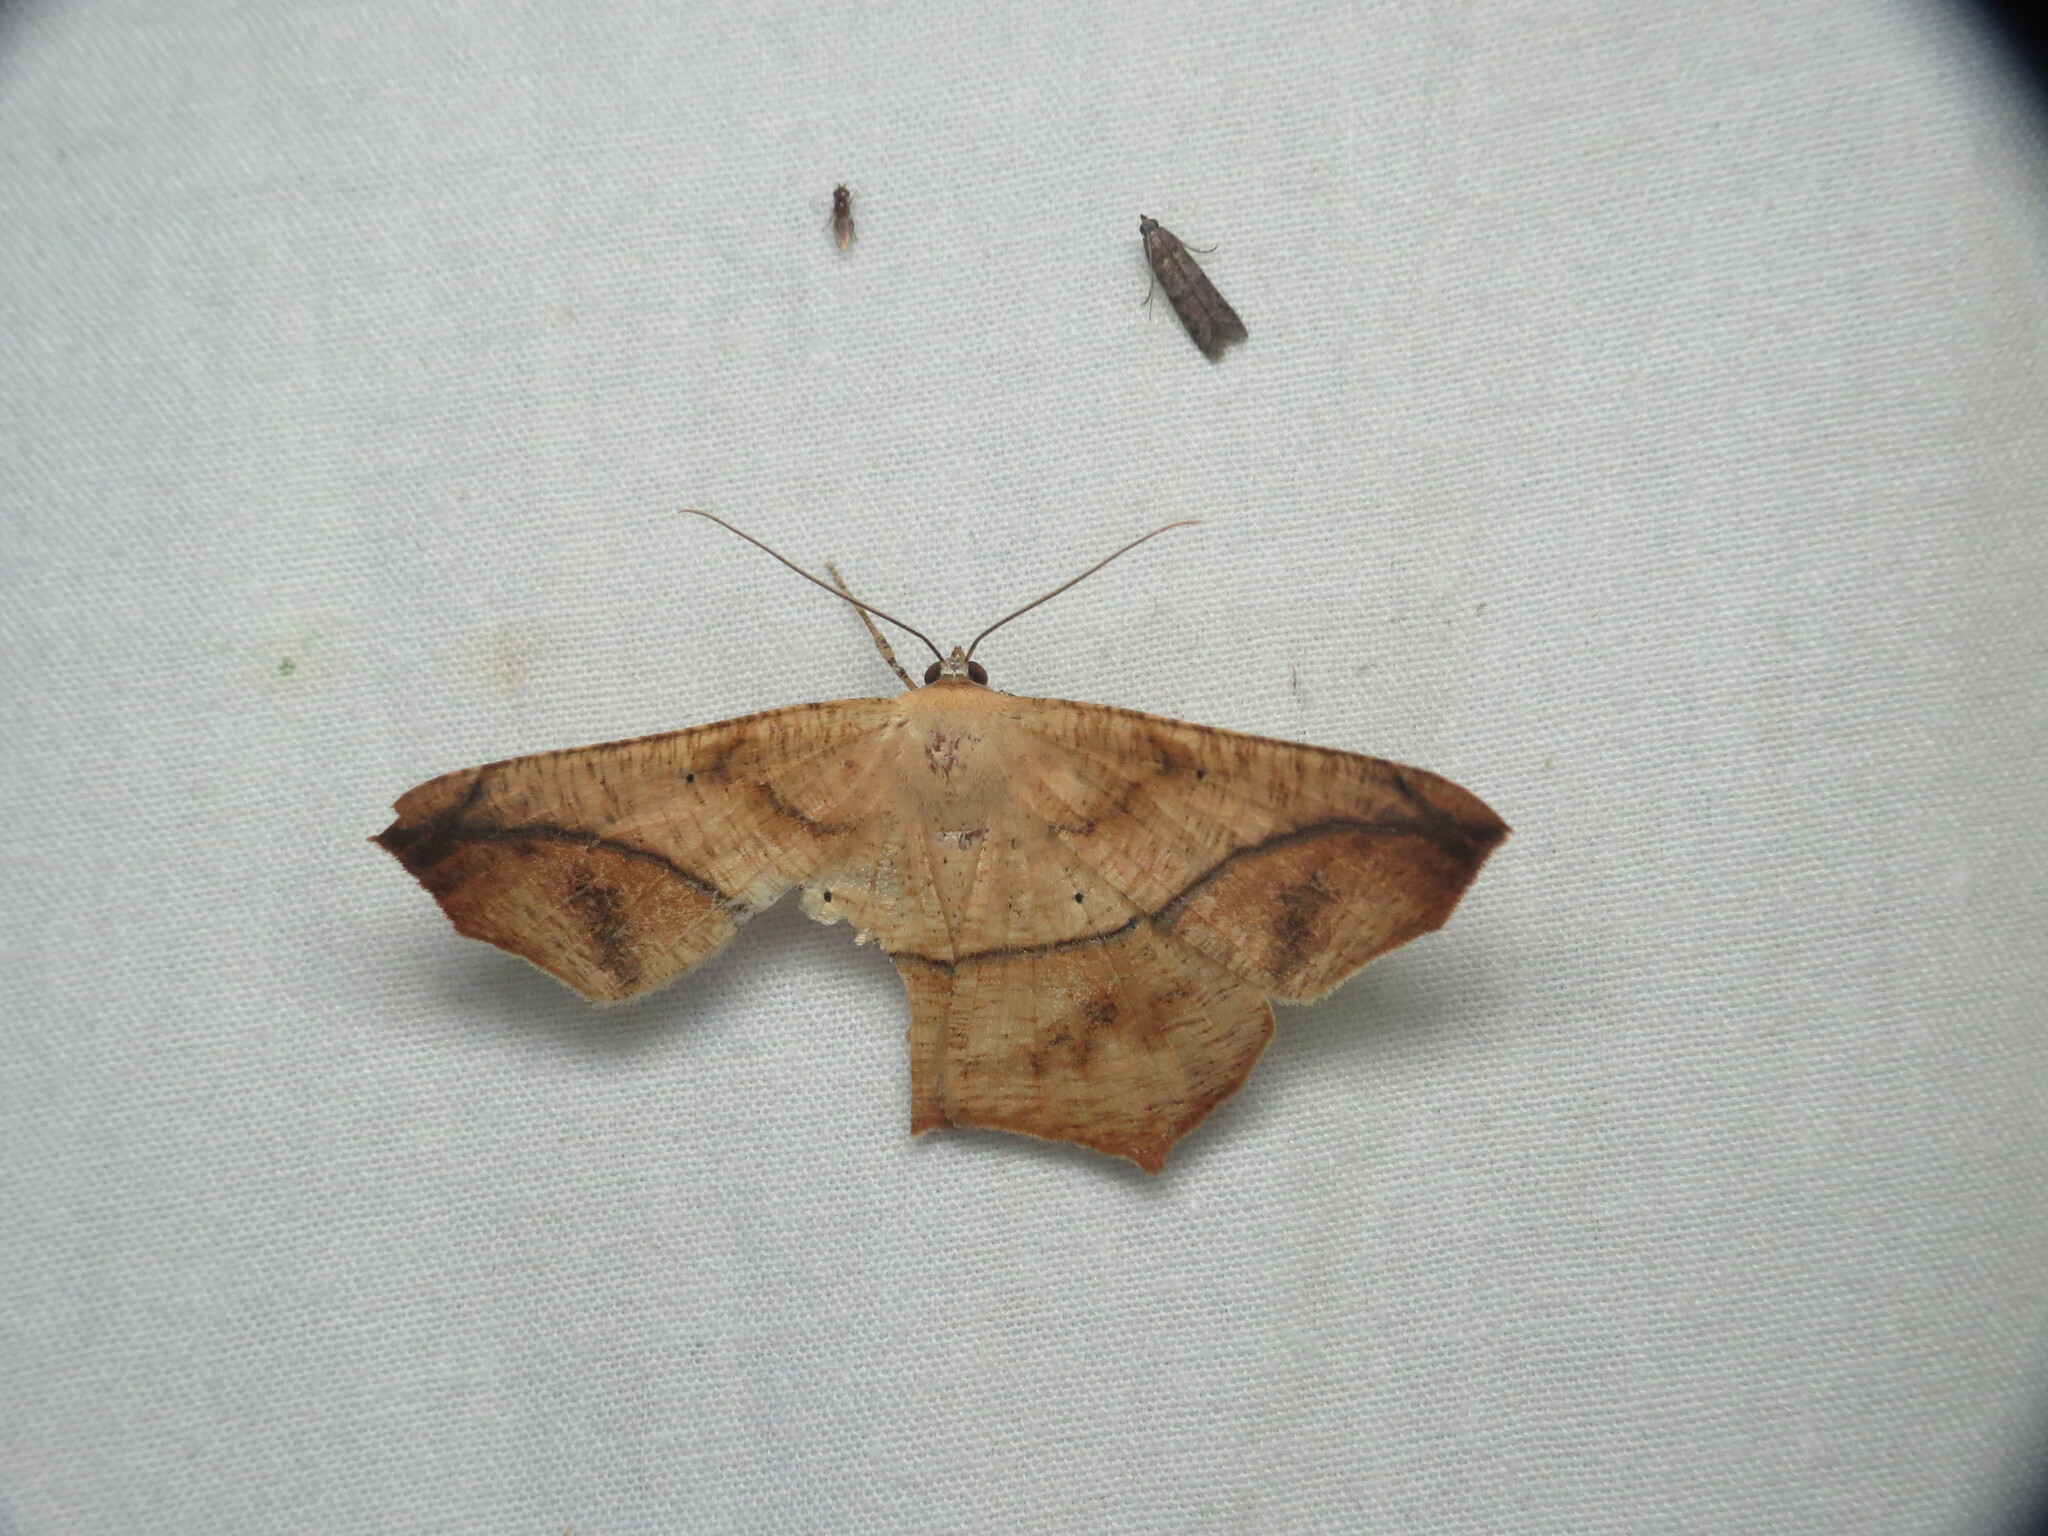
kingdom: Animalia
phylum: Arthropoda
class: Insecta
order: Lepidoptera
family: Geometridae
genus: Prochoerodes
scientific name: Prochoerodes lineola
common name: Large maple spanworm
